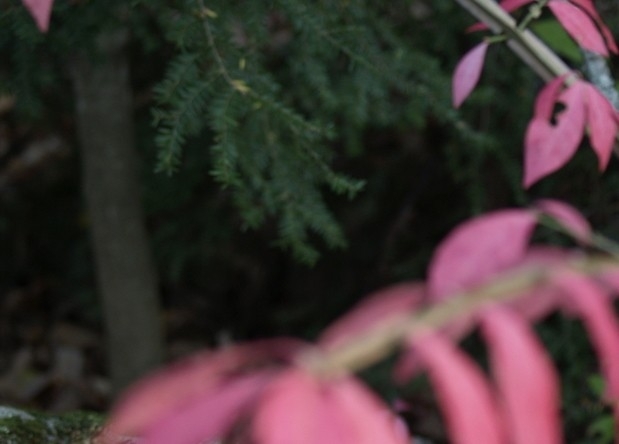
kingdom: Plantae
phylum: Tracheophyta
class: Pinopsida
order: Pinales
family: Pinaceae
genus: Tsuga
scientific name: Tsuga canadensis
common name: Eastern hemlock
